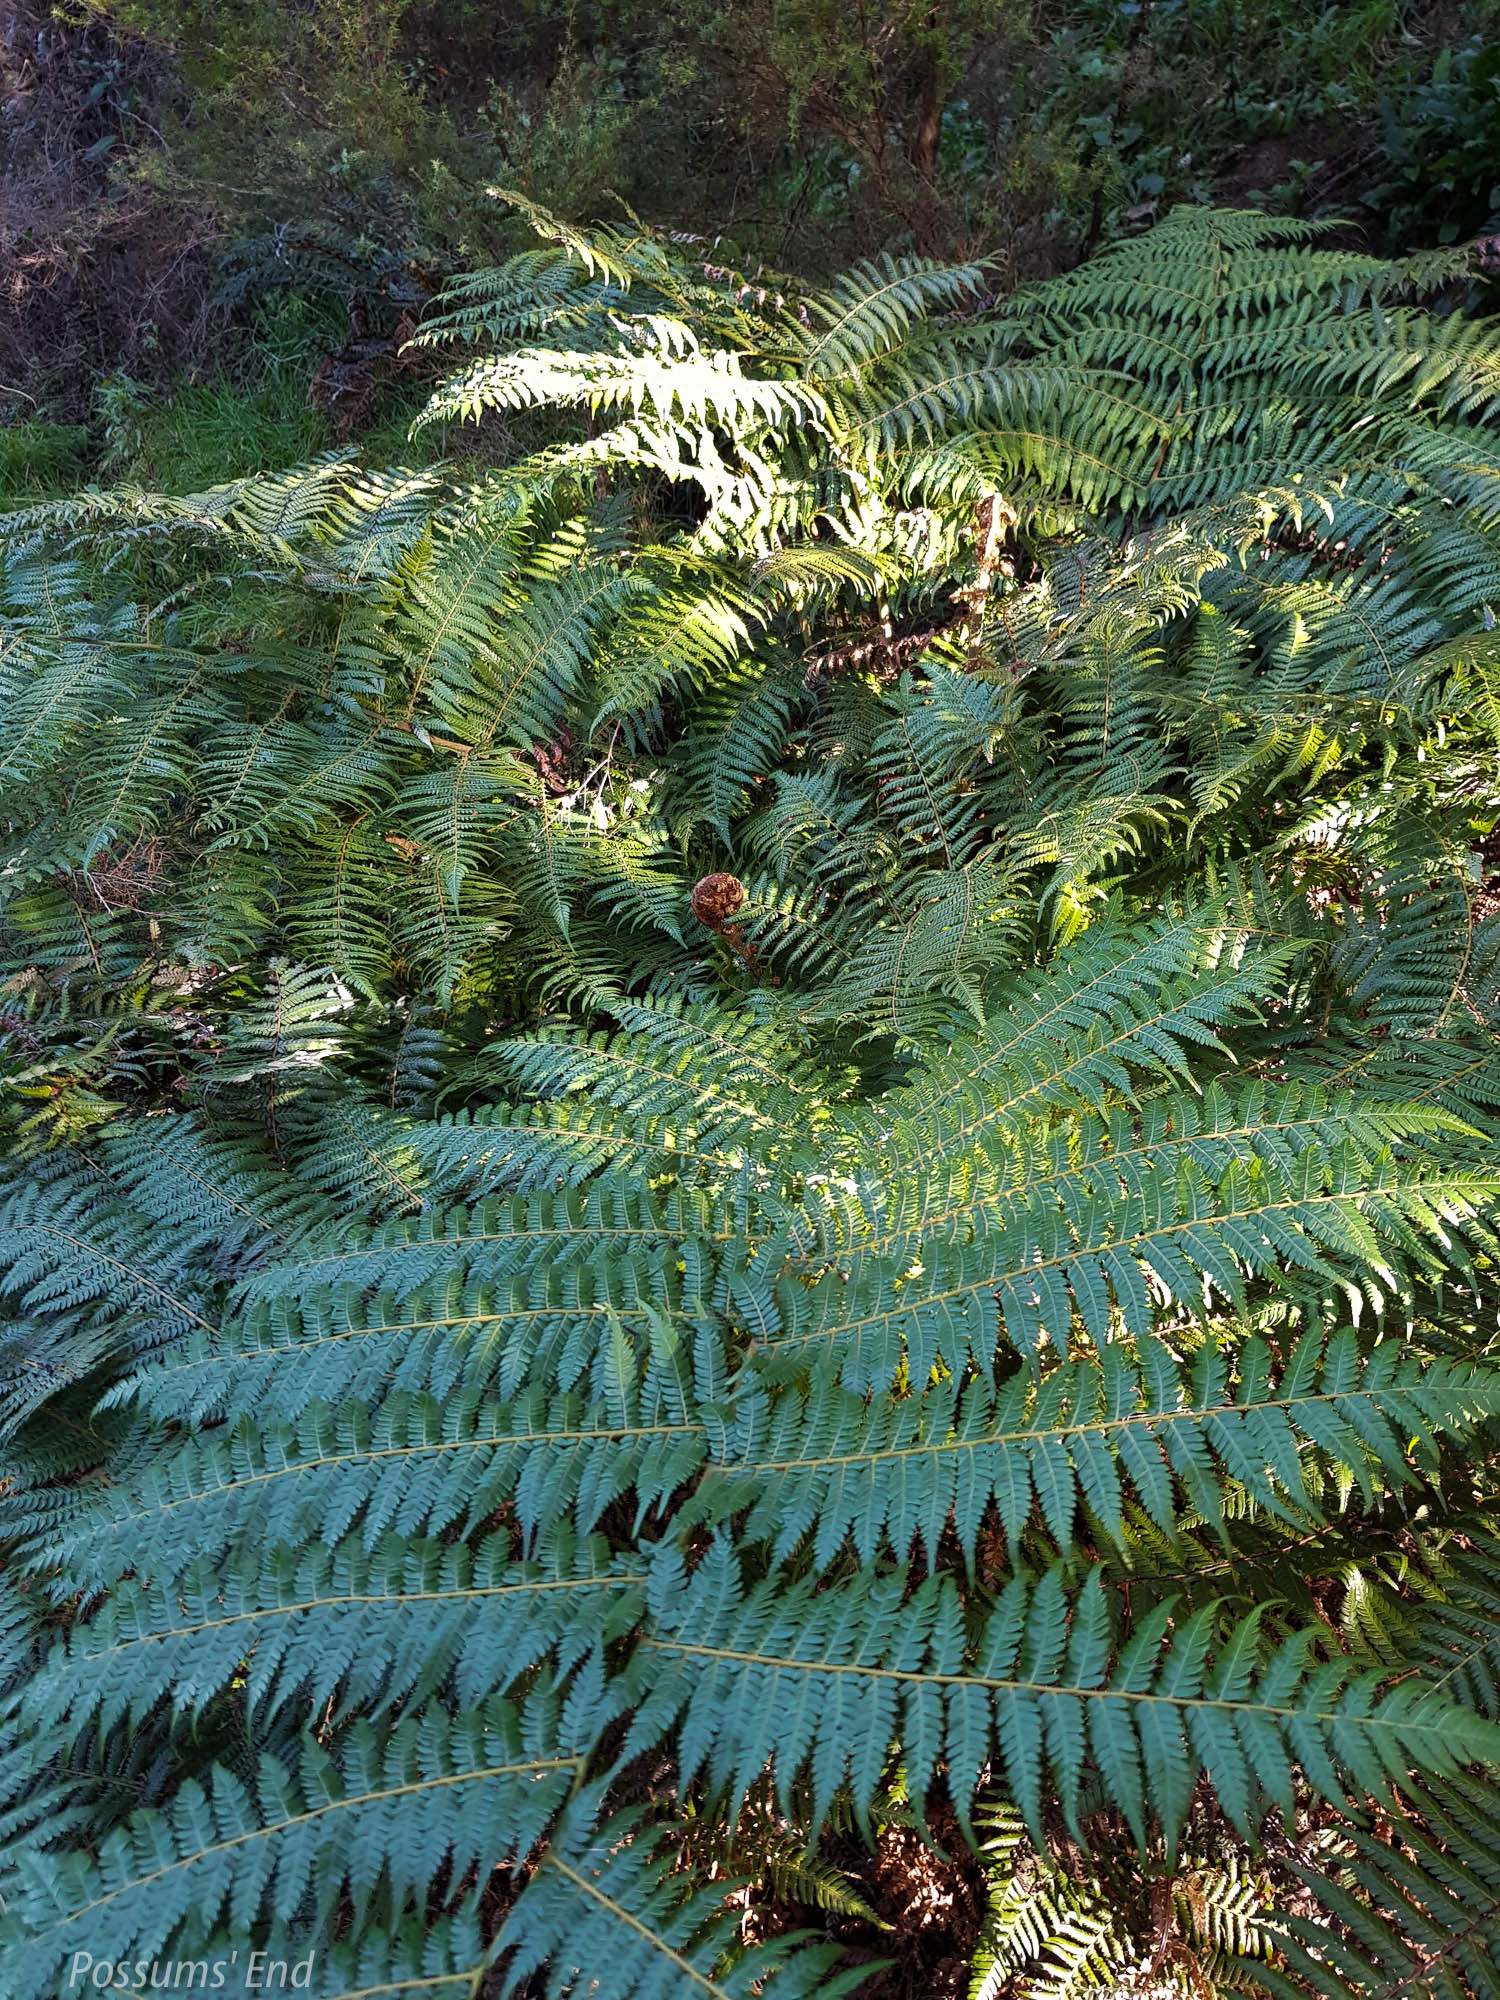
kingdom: Plantae
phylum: Tracheophyta
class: Polypodiopsida
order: Cyatheales
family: Cyatheaceae
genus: Alsophila
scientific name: Alsophila dealbata
